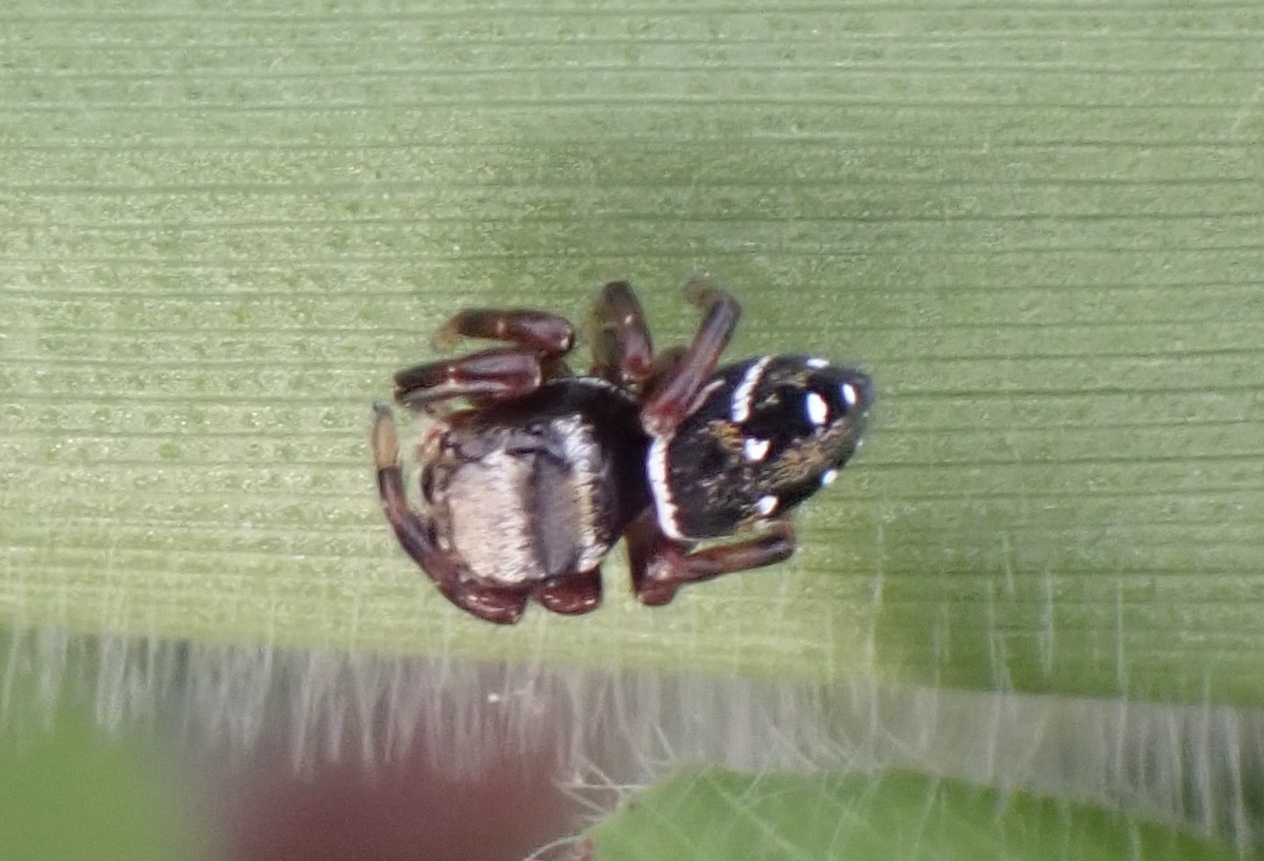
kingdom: Animalia
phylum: Arthropoda
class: Arachnida
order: Araneae
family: Salticidae
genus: Phidippus
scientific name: Phidippus clarus
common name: Brilliant jumping spider
